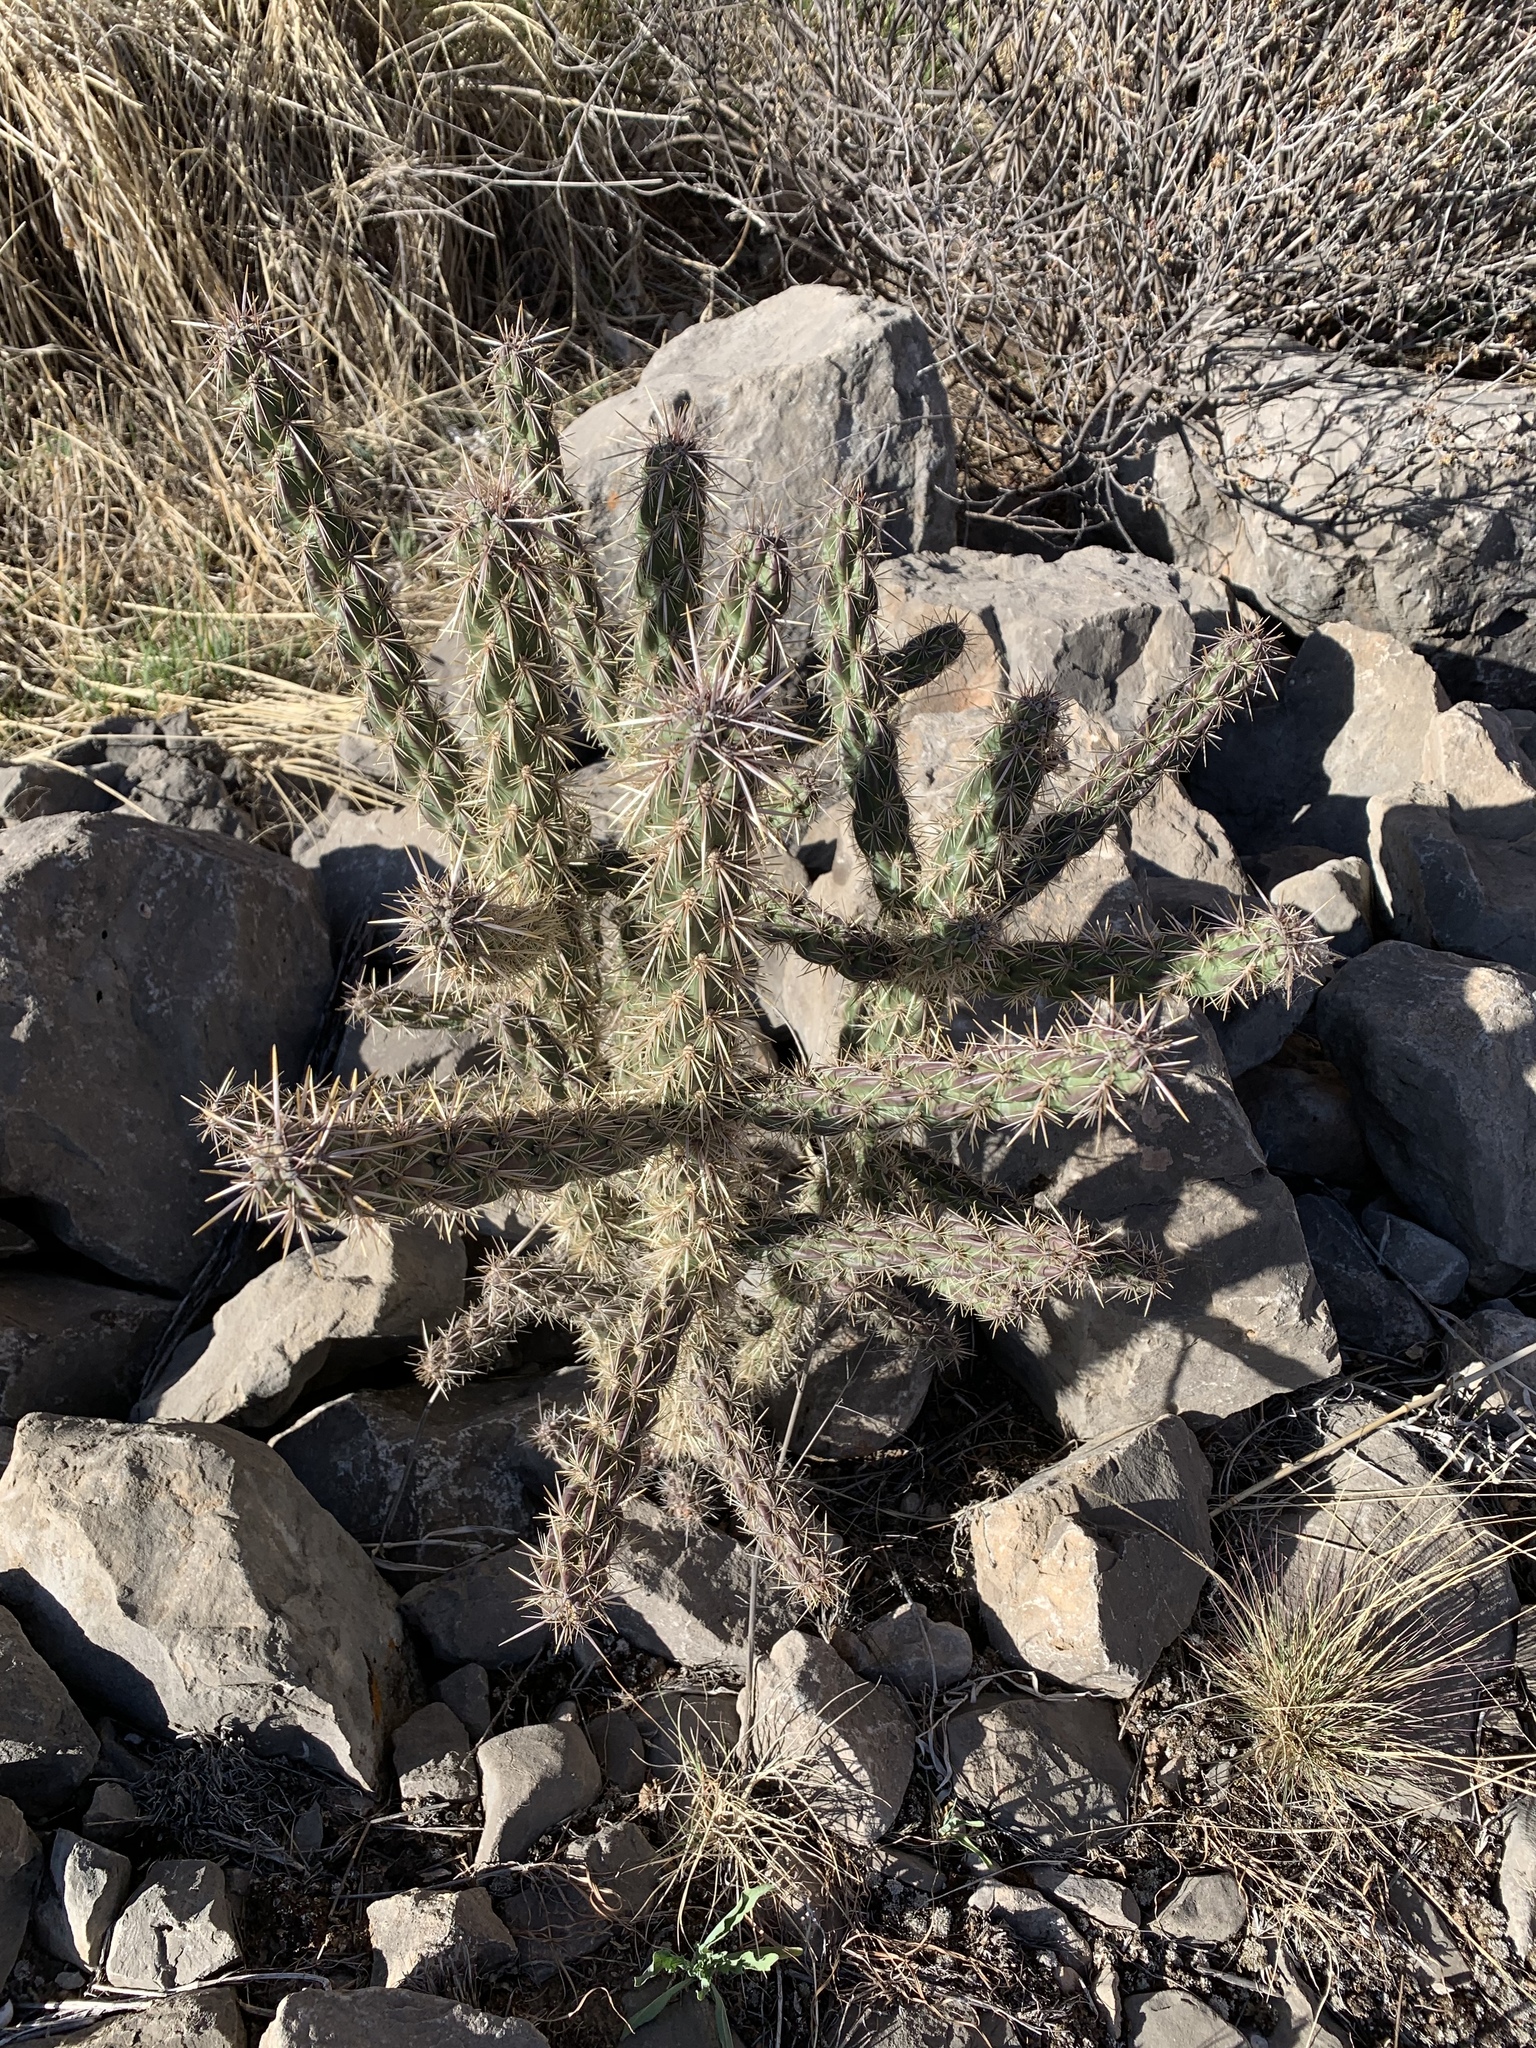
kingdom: Plantae
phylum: Tracheophyta
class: Magnoliopsida
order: Caryophyllales
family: Cactaceae
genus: Cylindropuntia
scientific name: Cylindropuntia imbricata
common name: Candelabrum cactus
